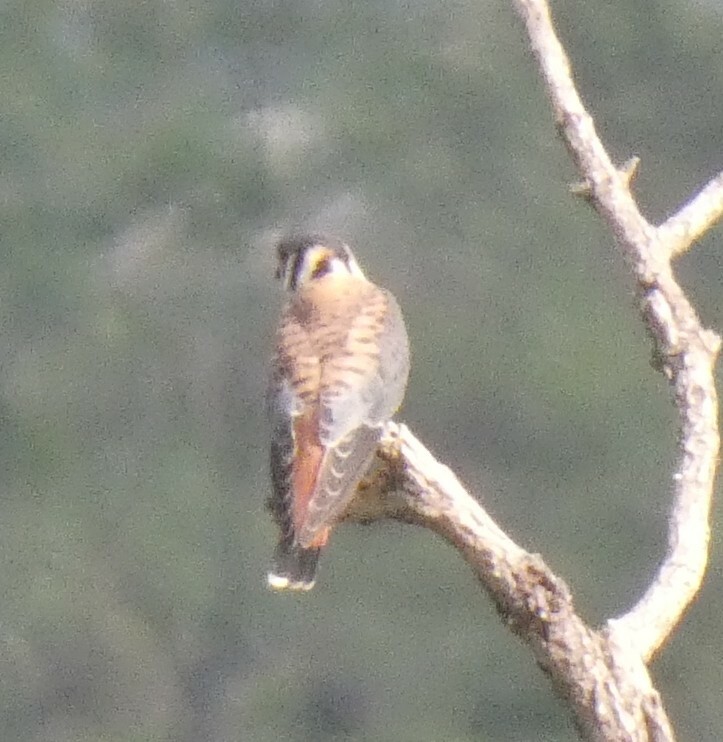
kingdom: Animalia
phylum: Chordata
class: Aves
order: Falconiformes
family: Falconidae
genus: Falco
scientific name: Falco sparverius
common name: American kestrel
